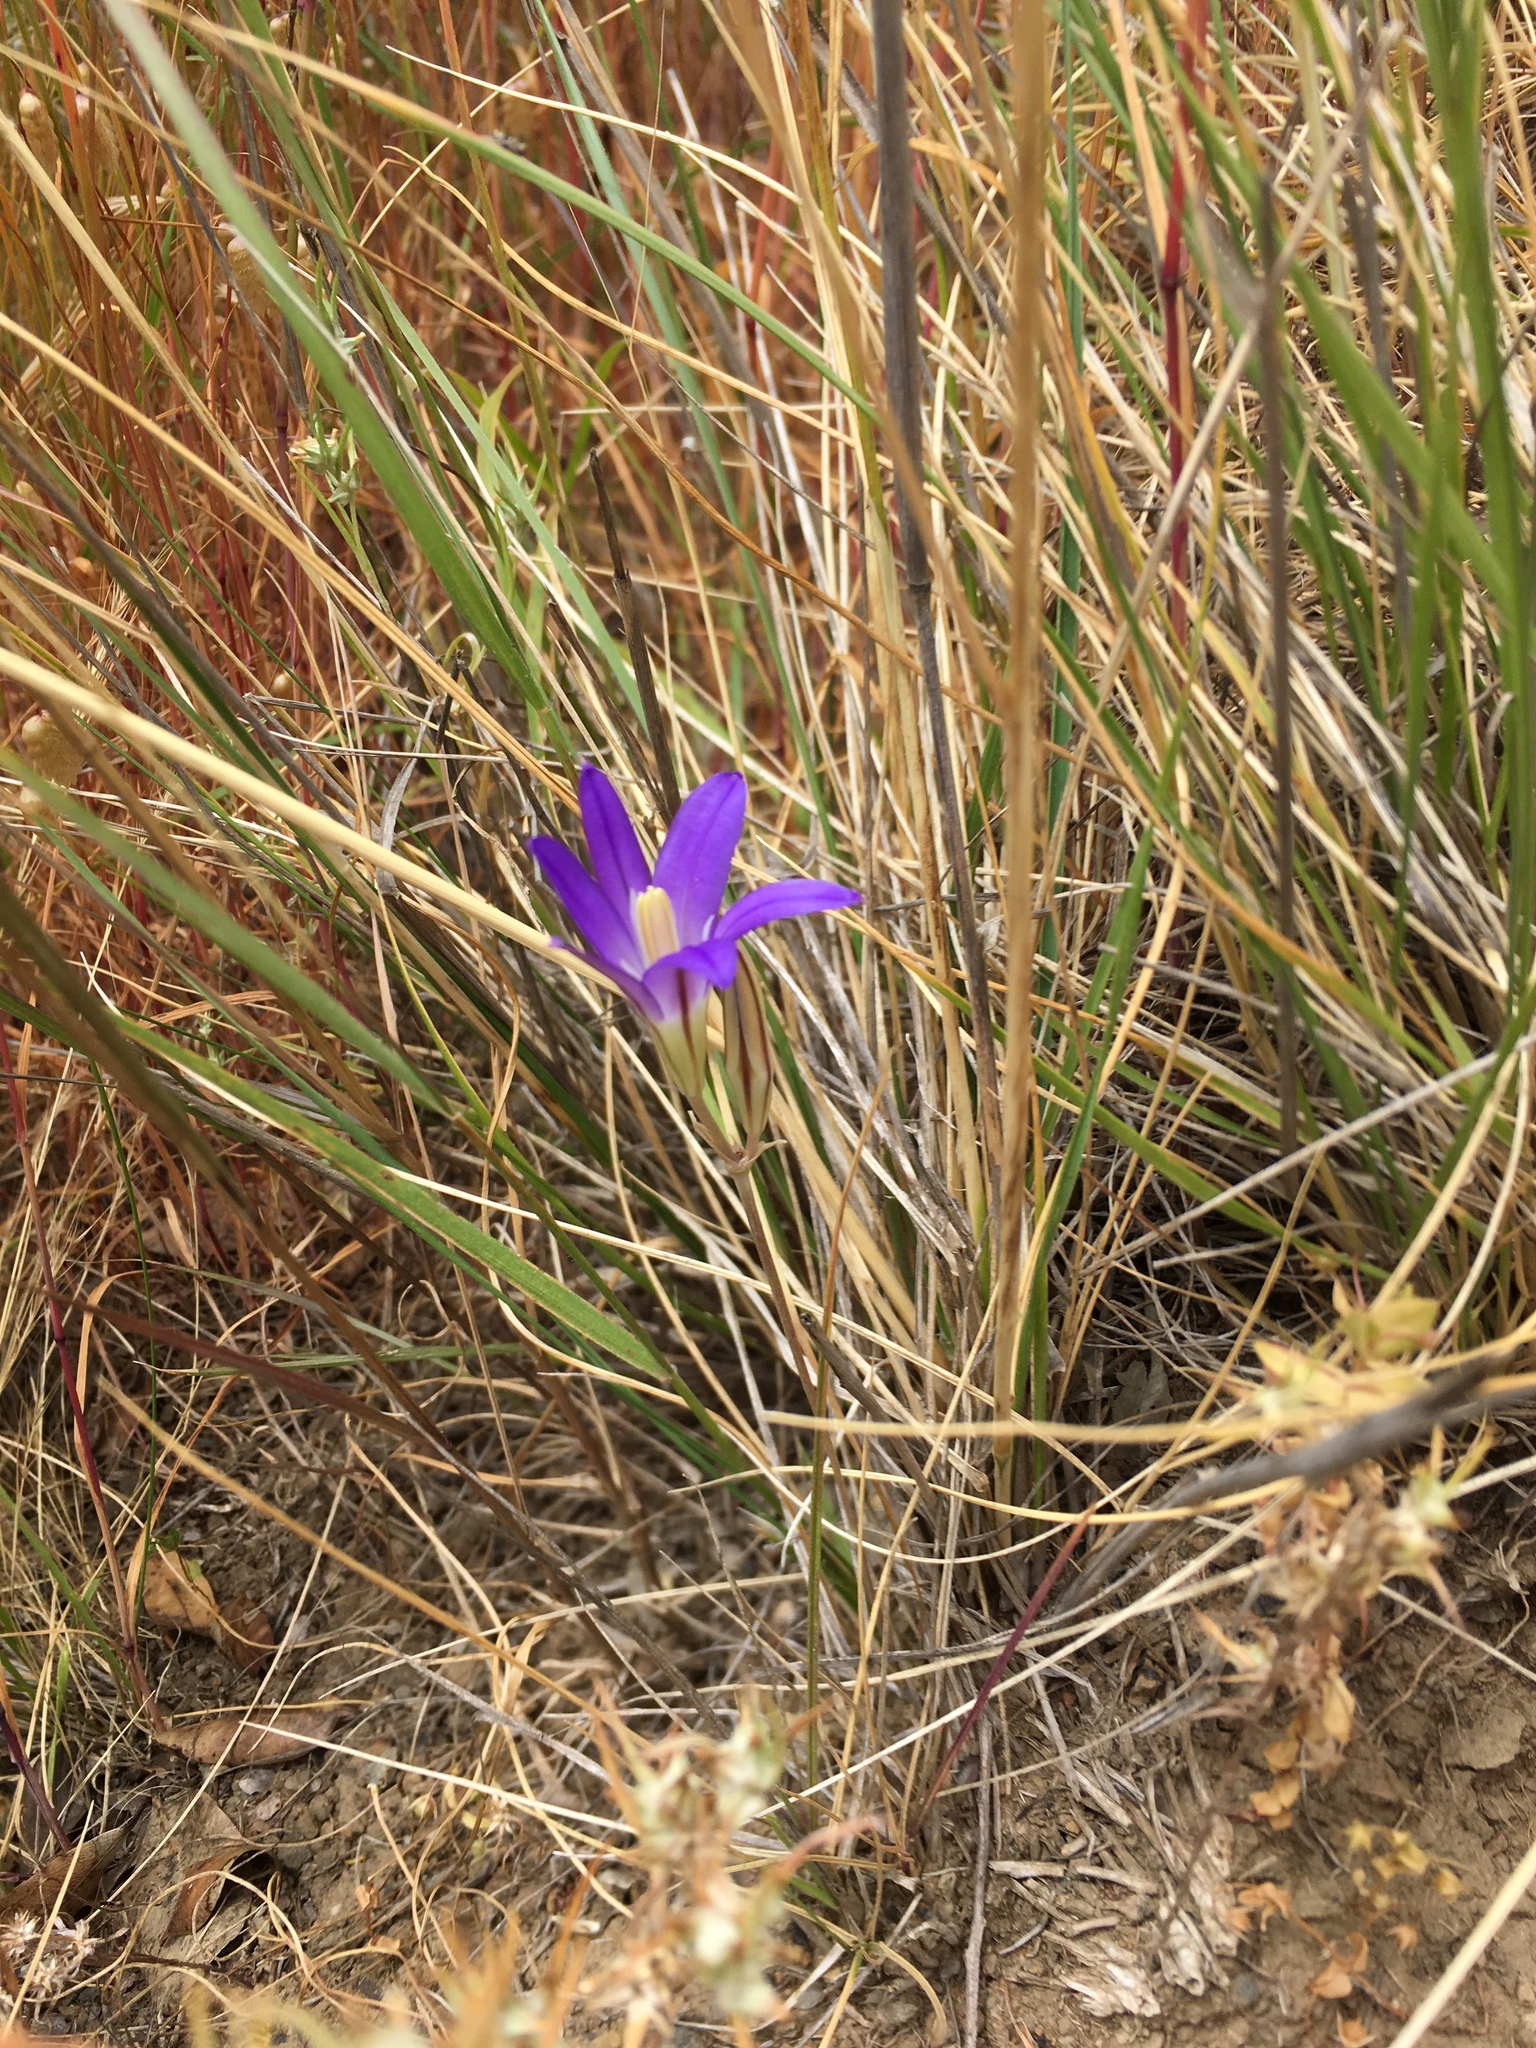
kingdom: Plantae
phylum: Tracheophyta
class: Liliopsida
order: Asparagales
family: Asparagaceae
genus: Brodiaea
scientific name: Brodiaea elegans
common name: Elegant cluster-lily
